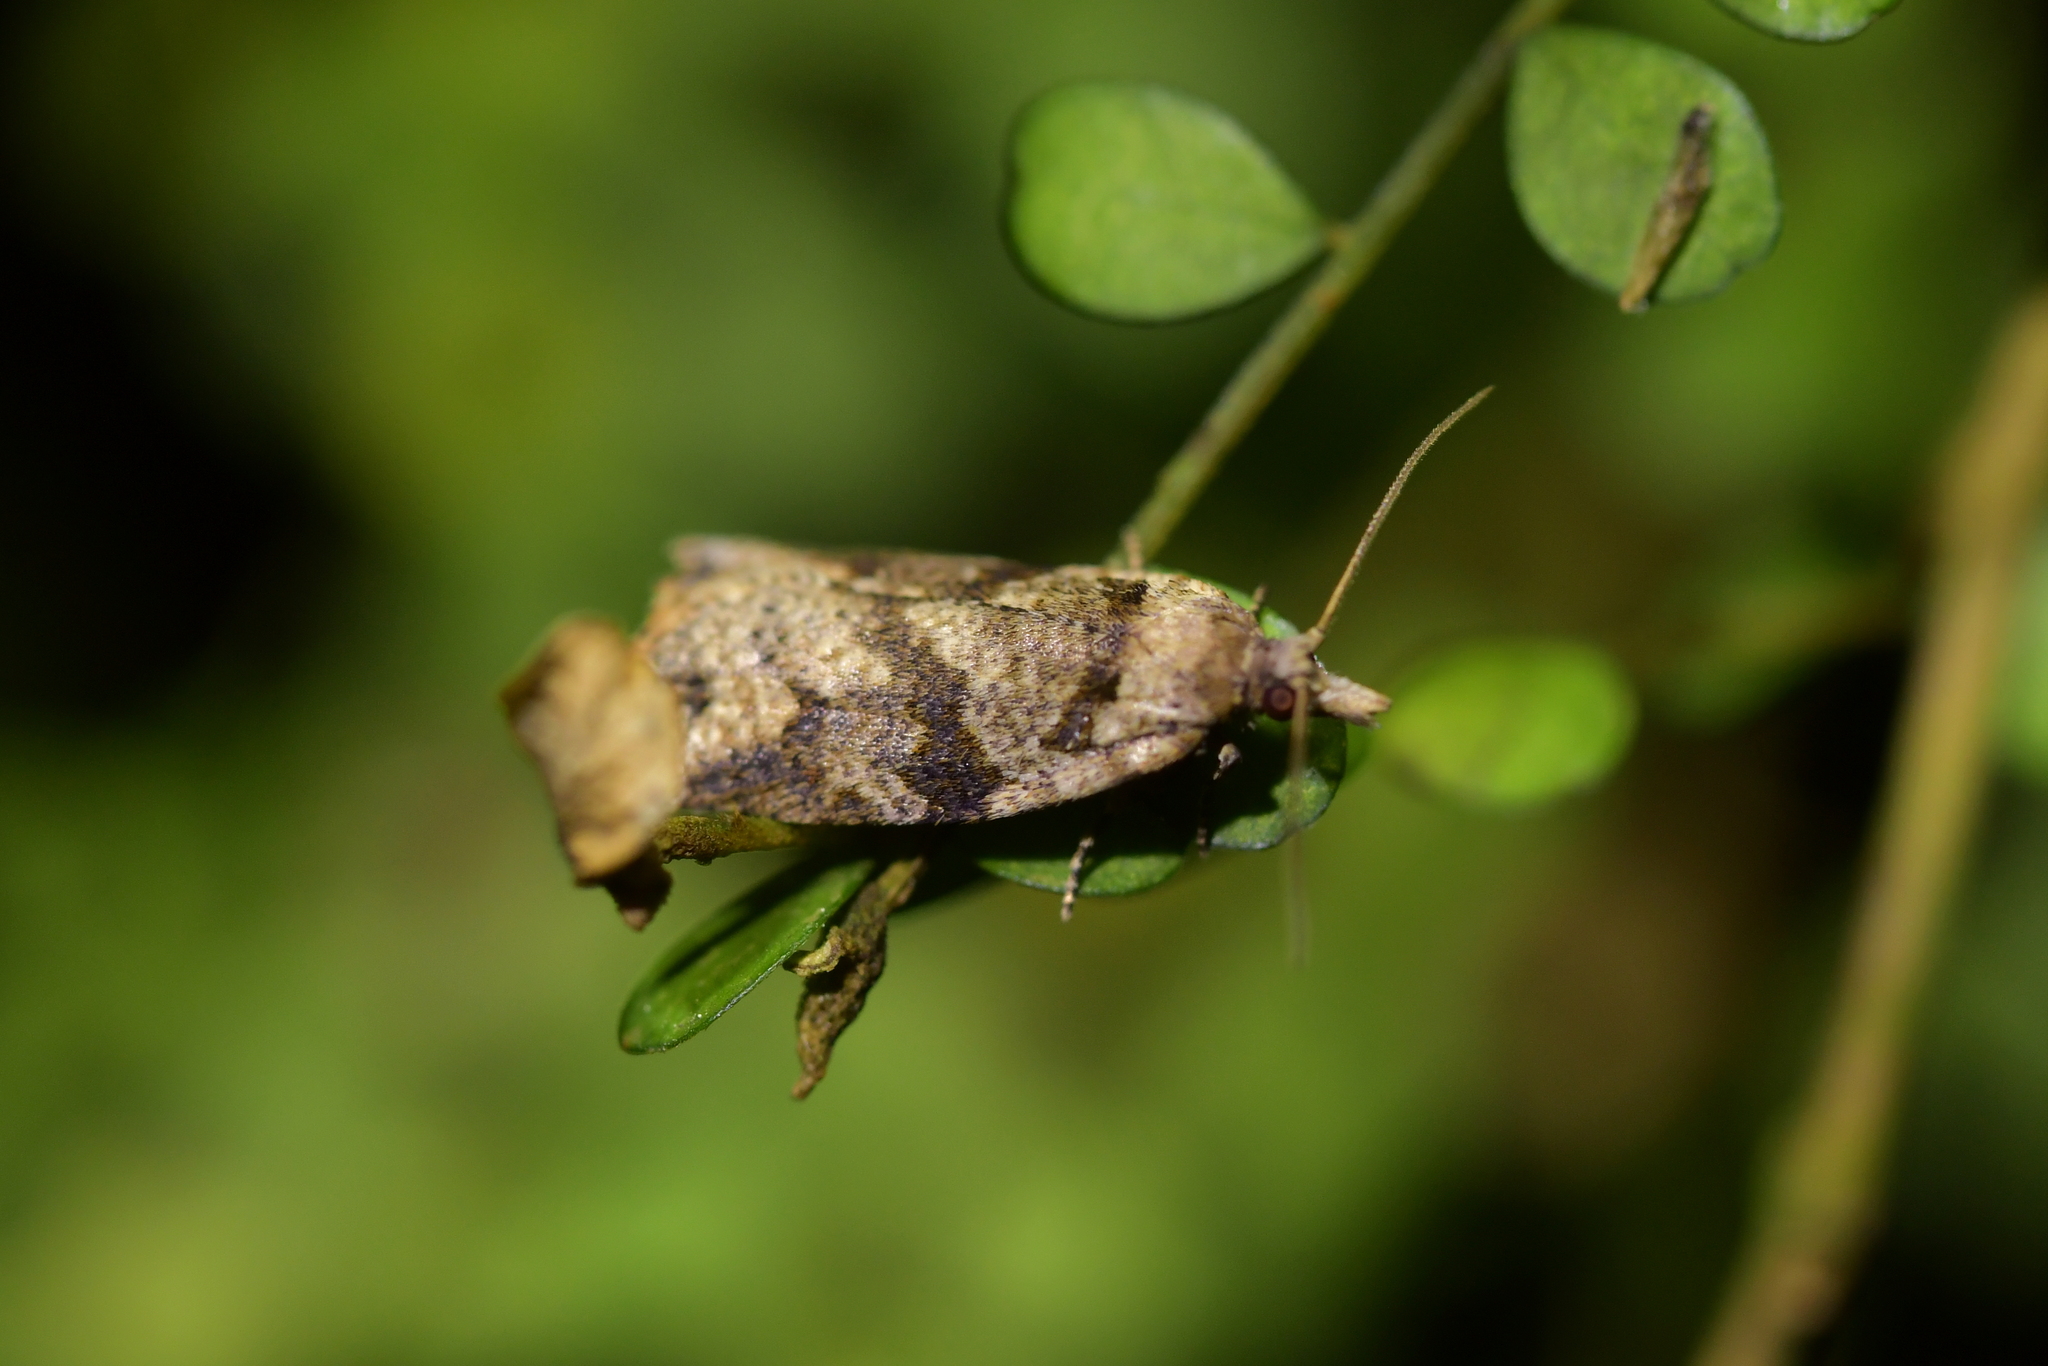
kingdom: Animalia
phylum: Arthropoda
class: Insecta
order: Lepidoptera
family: Tortricidae
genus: Ctenopseustis
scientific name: Ctenopseustis obliquana
